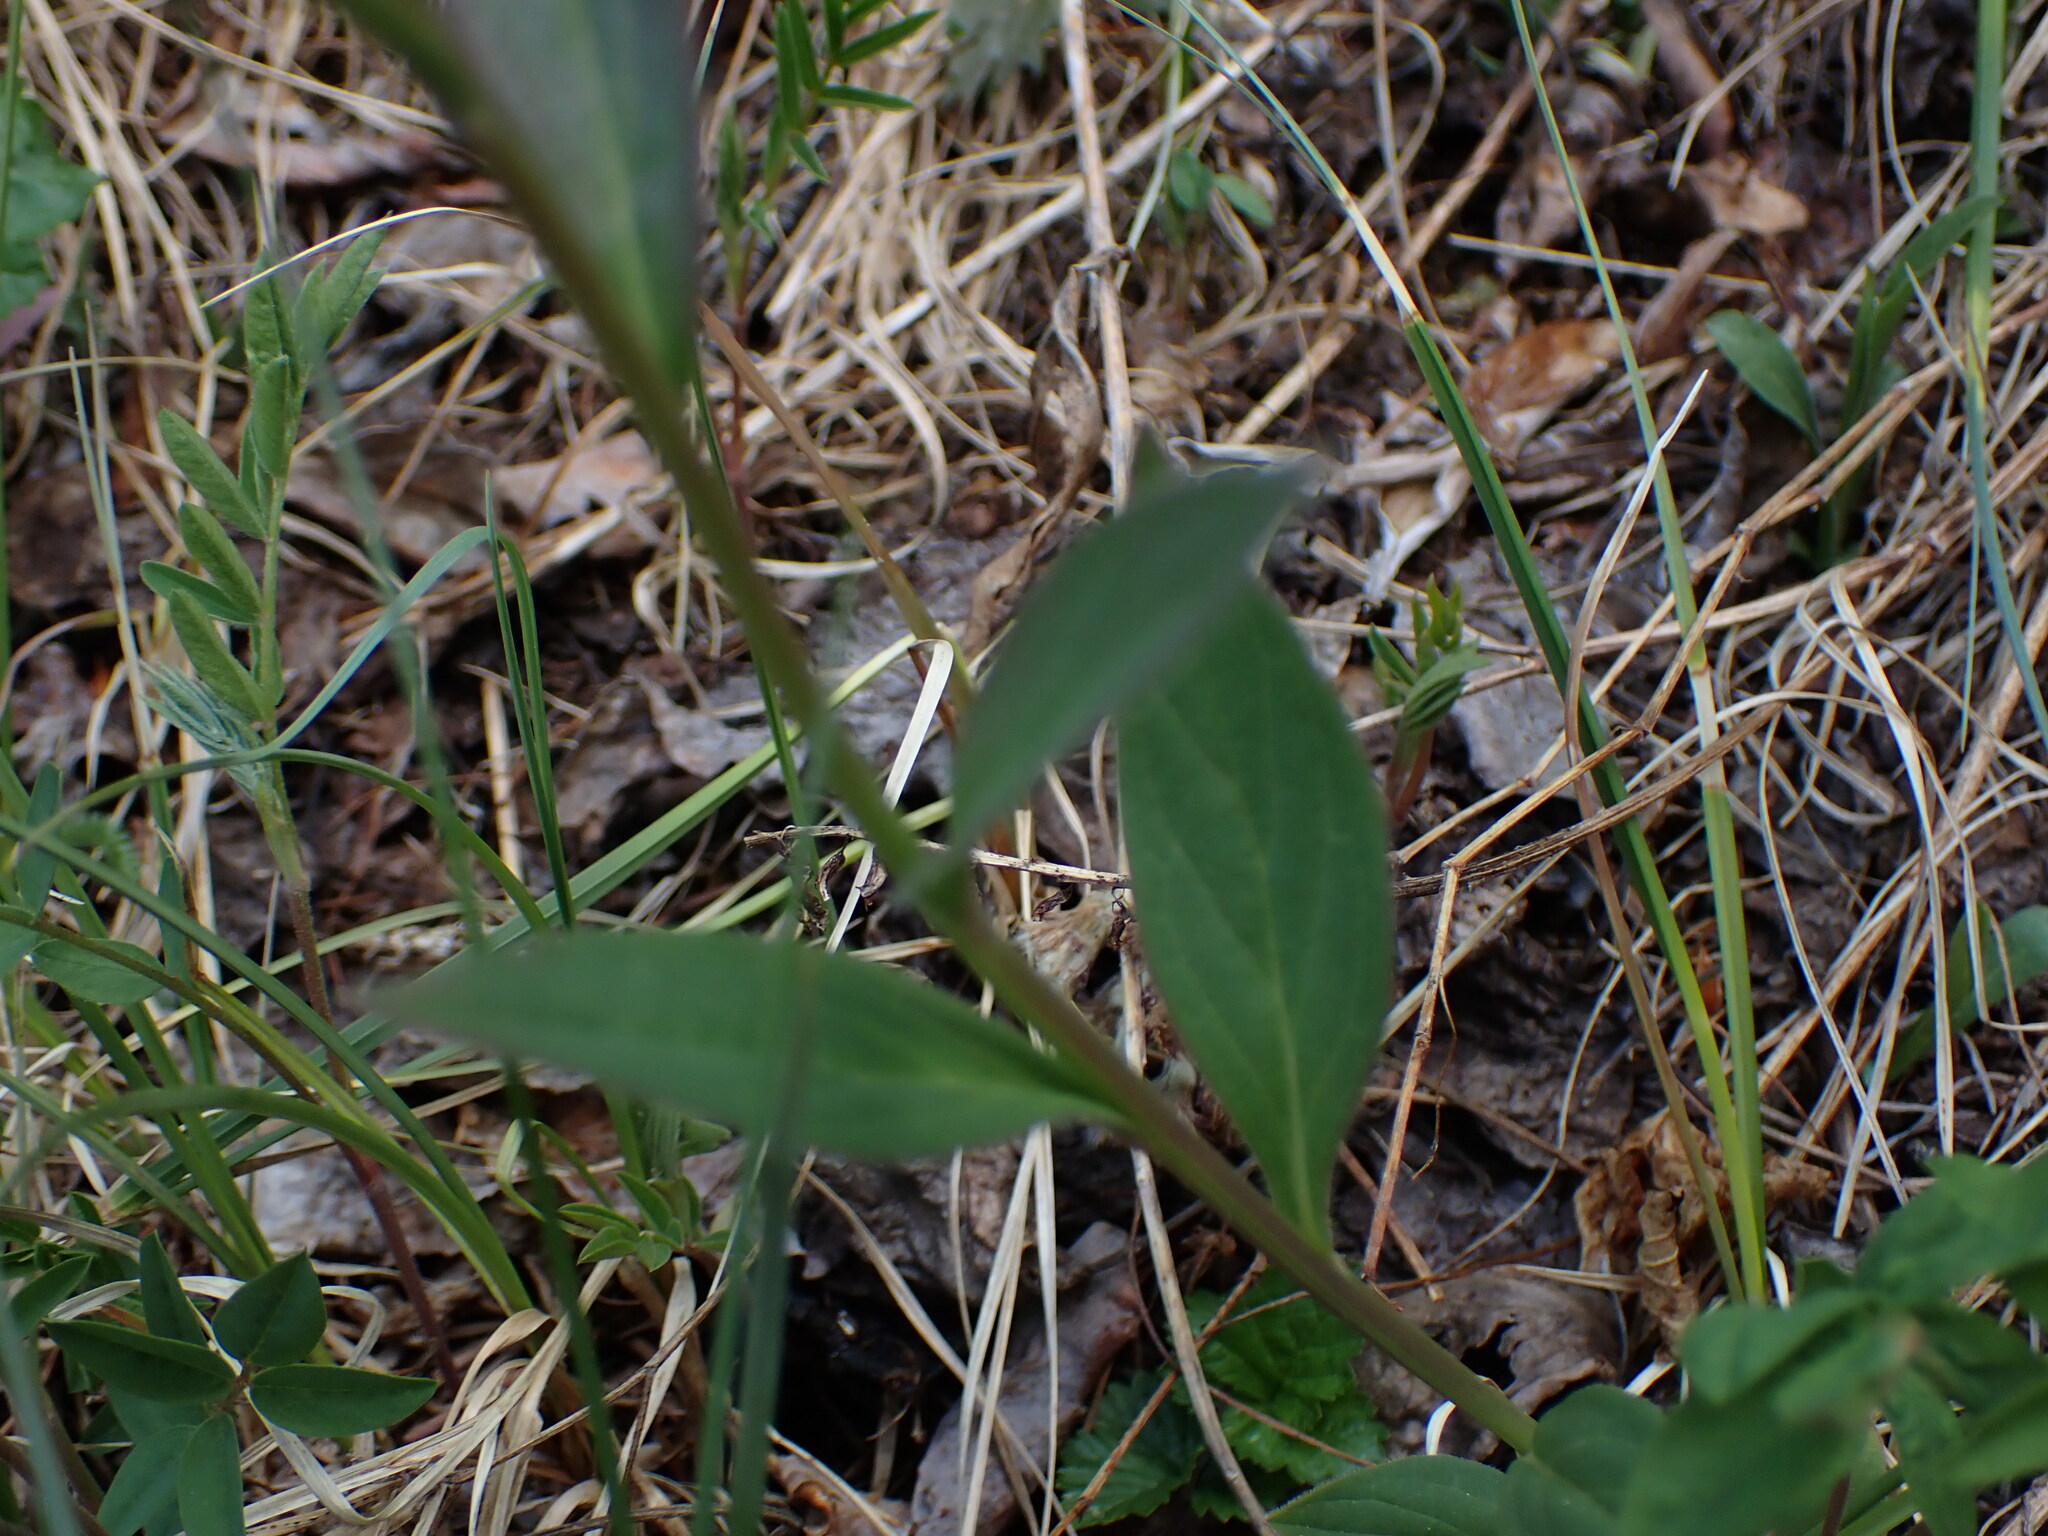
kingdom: Plantae
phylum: Tracheophyta
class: Magnoliopsida
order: Boraginales
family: Boraginaceae
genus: Mertensia
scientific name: Mertensia paniculata
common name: Panicled bluebells
